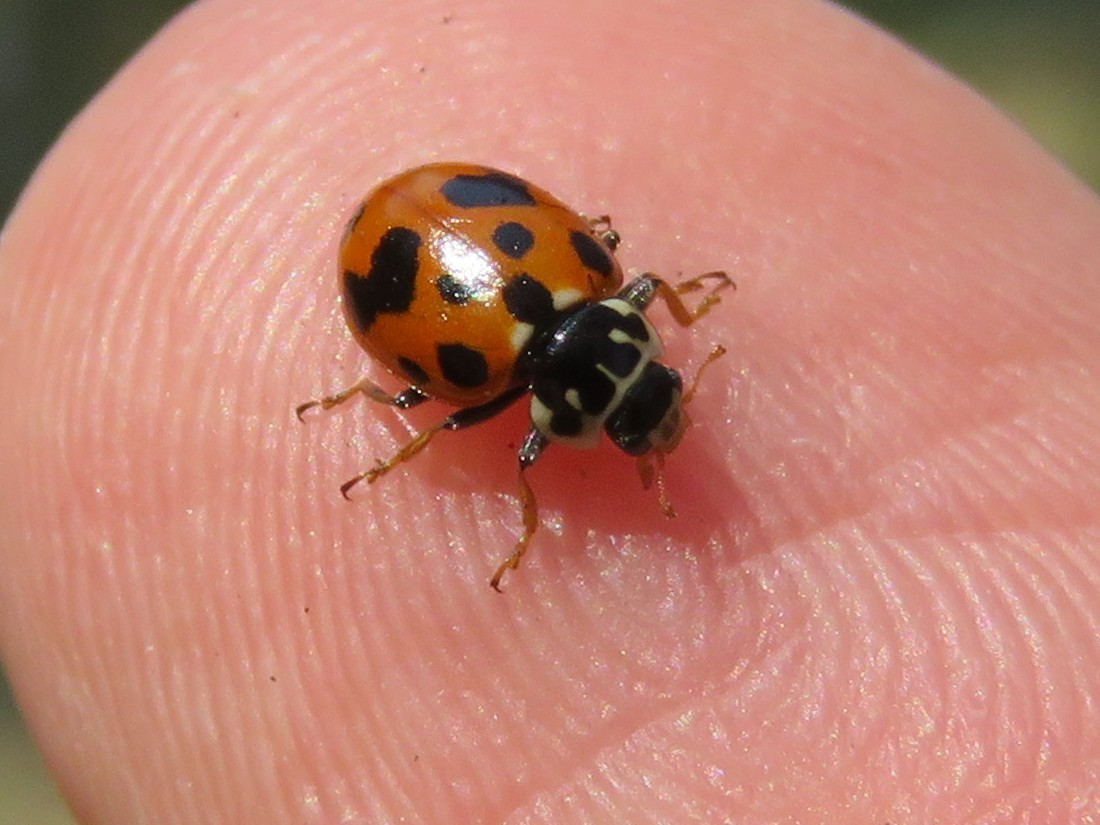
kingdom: Animalia
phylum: Arthropoda
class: Insecta
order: Coleoptera
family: Coccinellidae
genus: Hippodamia
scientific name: Hippodamia variegata
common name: Ladybird beetle
